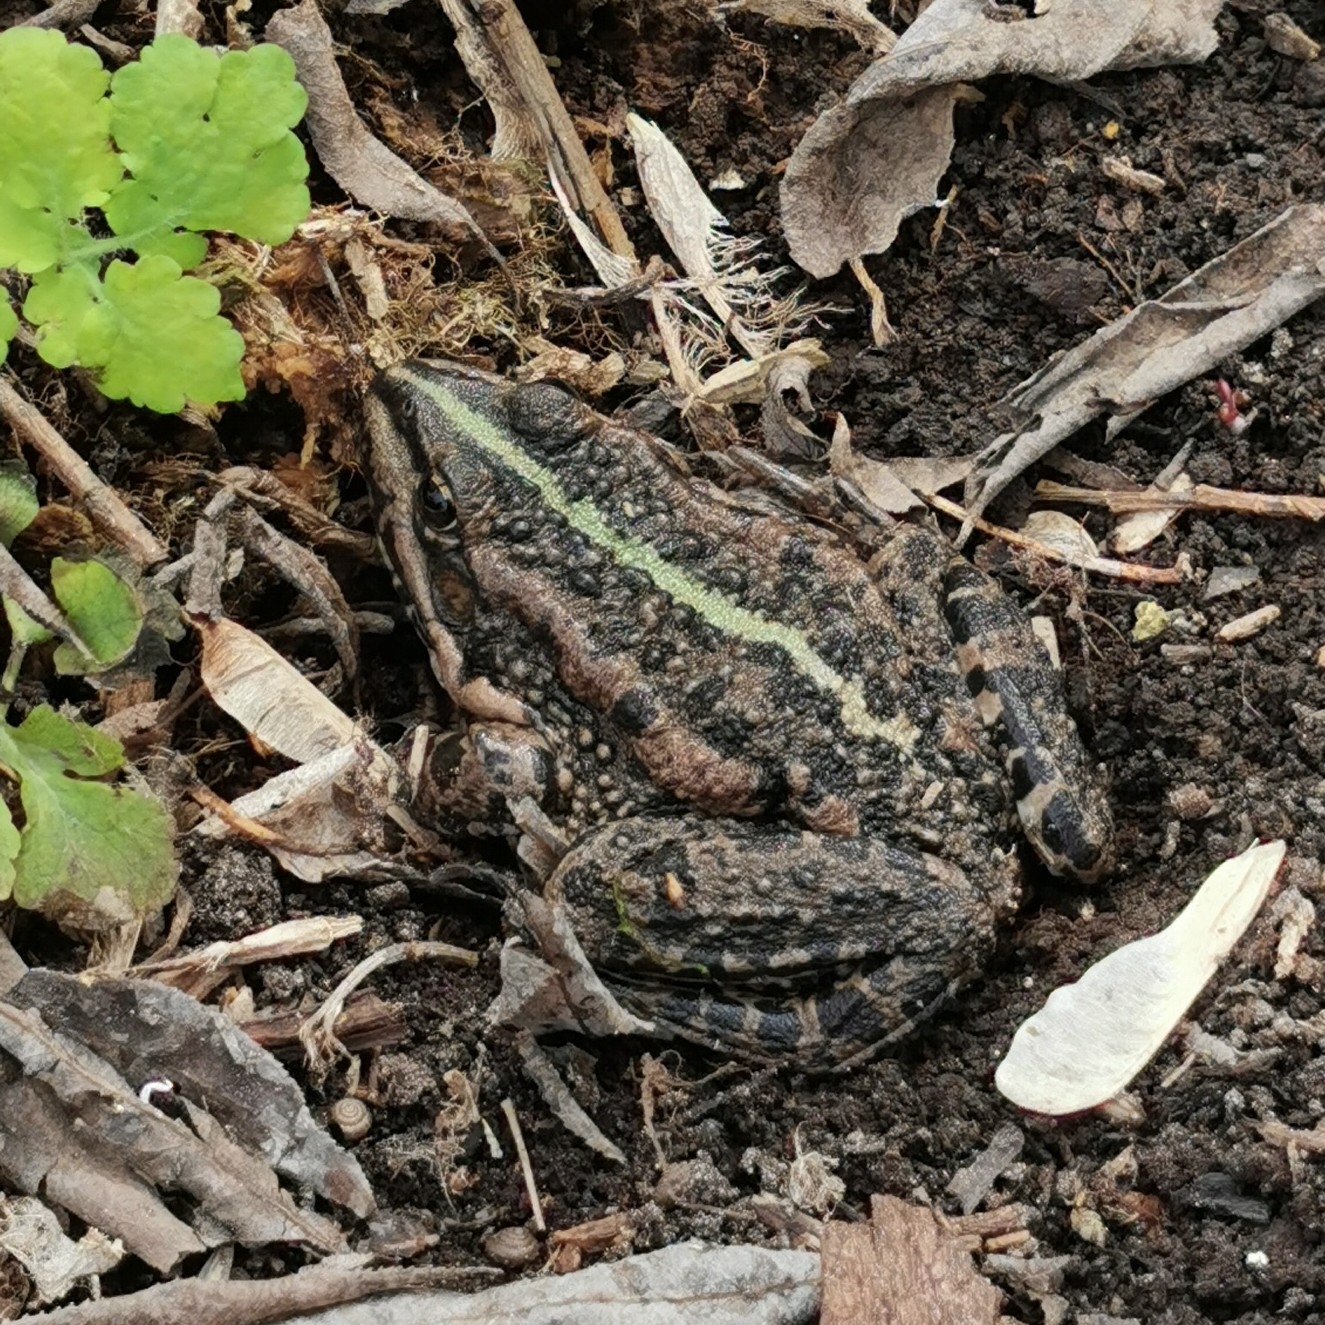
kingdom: Animalia
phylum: Chordata
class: Amphibia
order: Anura
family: Ranidae
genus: Pelophylax
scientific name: Pelophylax ridibundus
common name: Marsh frog
